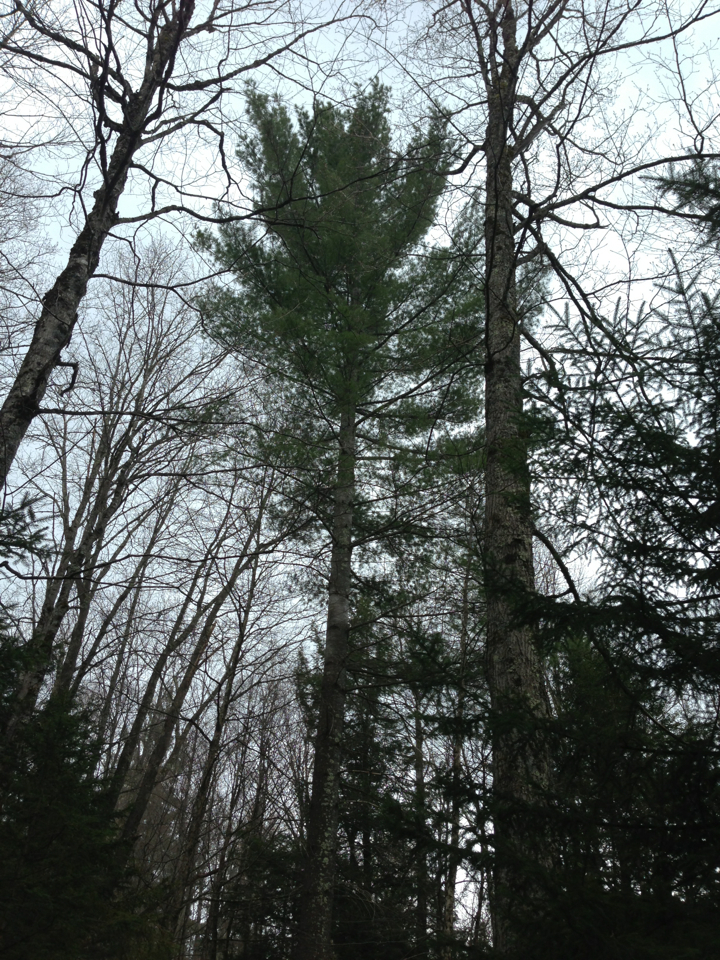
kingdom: Plantae
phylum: Tracheophyta
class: Pinopsida
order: Pinales
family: Pinaceae
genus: Pinus
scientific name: Pinus strobus
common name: Weymouth pine
